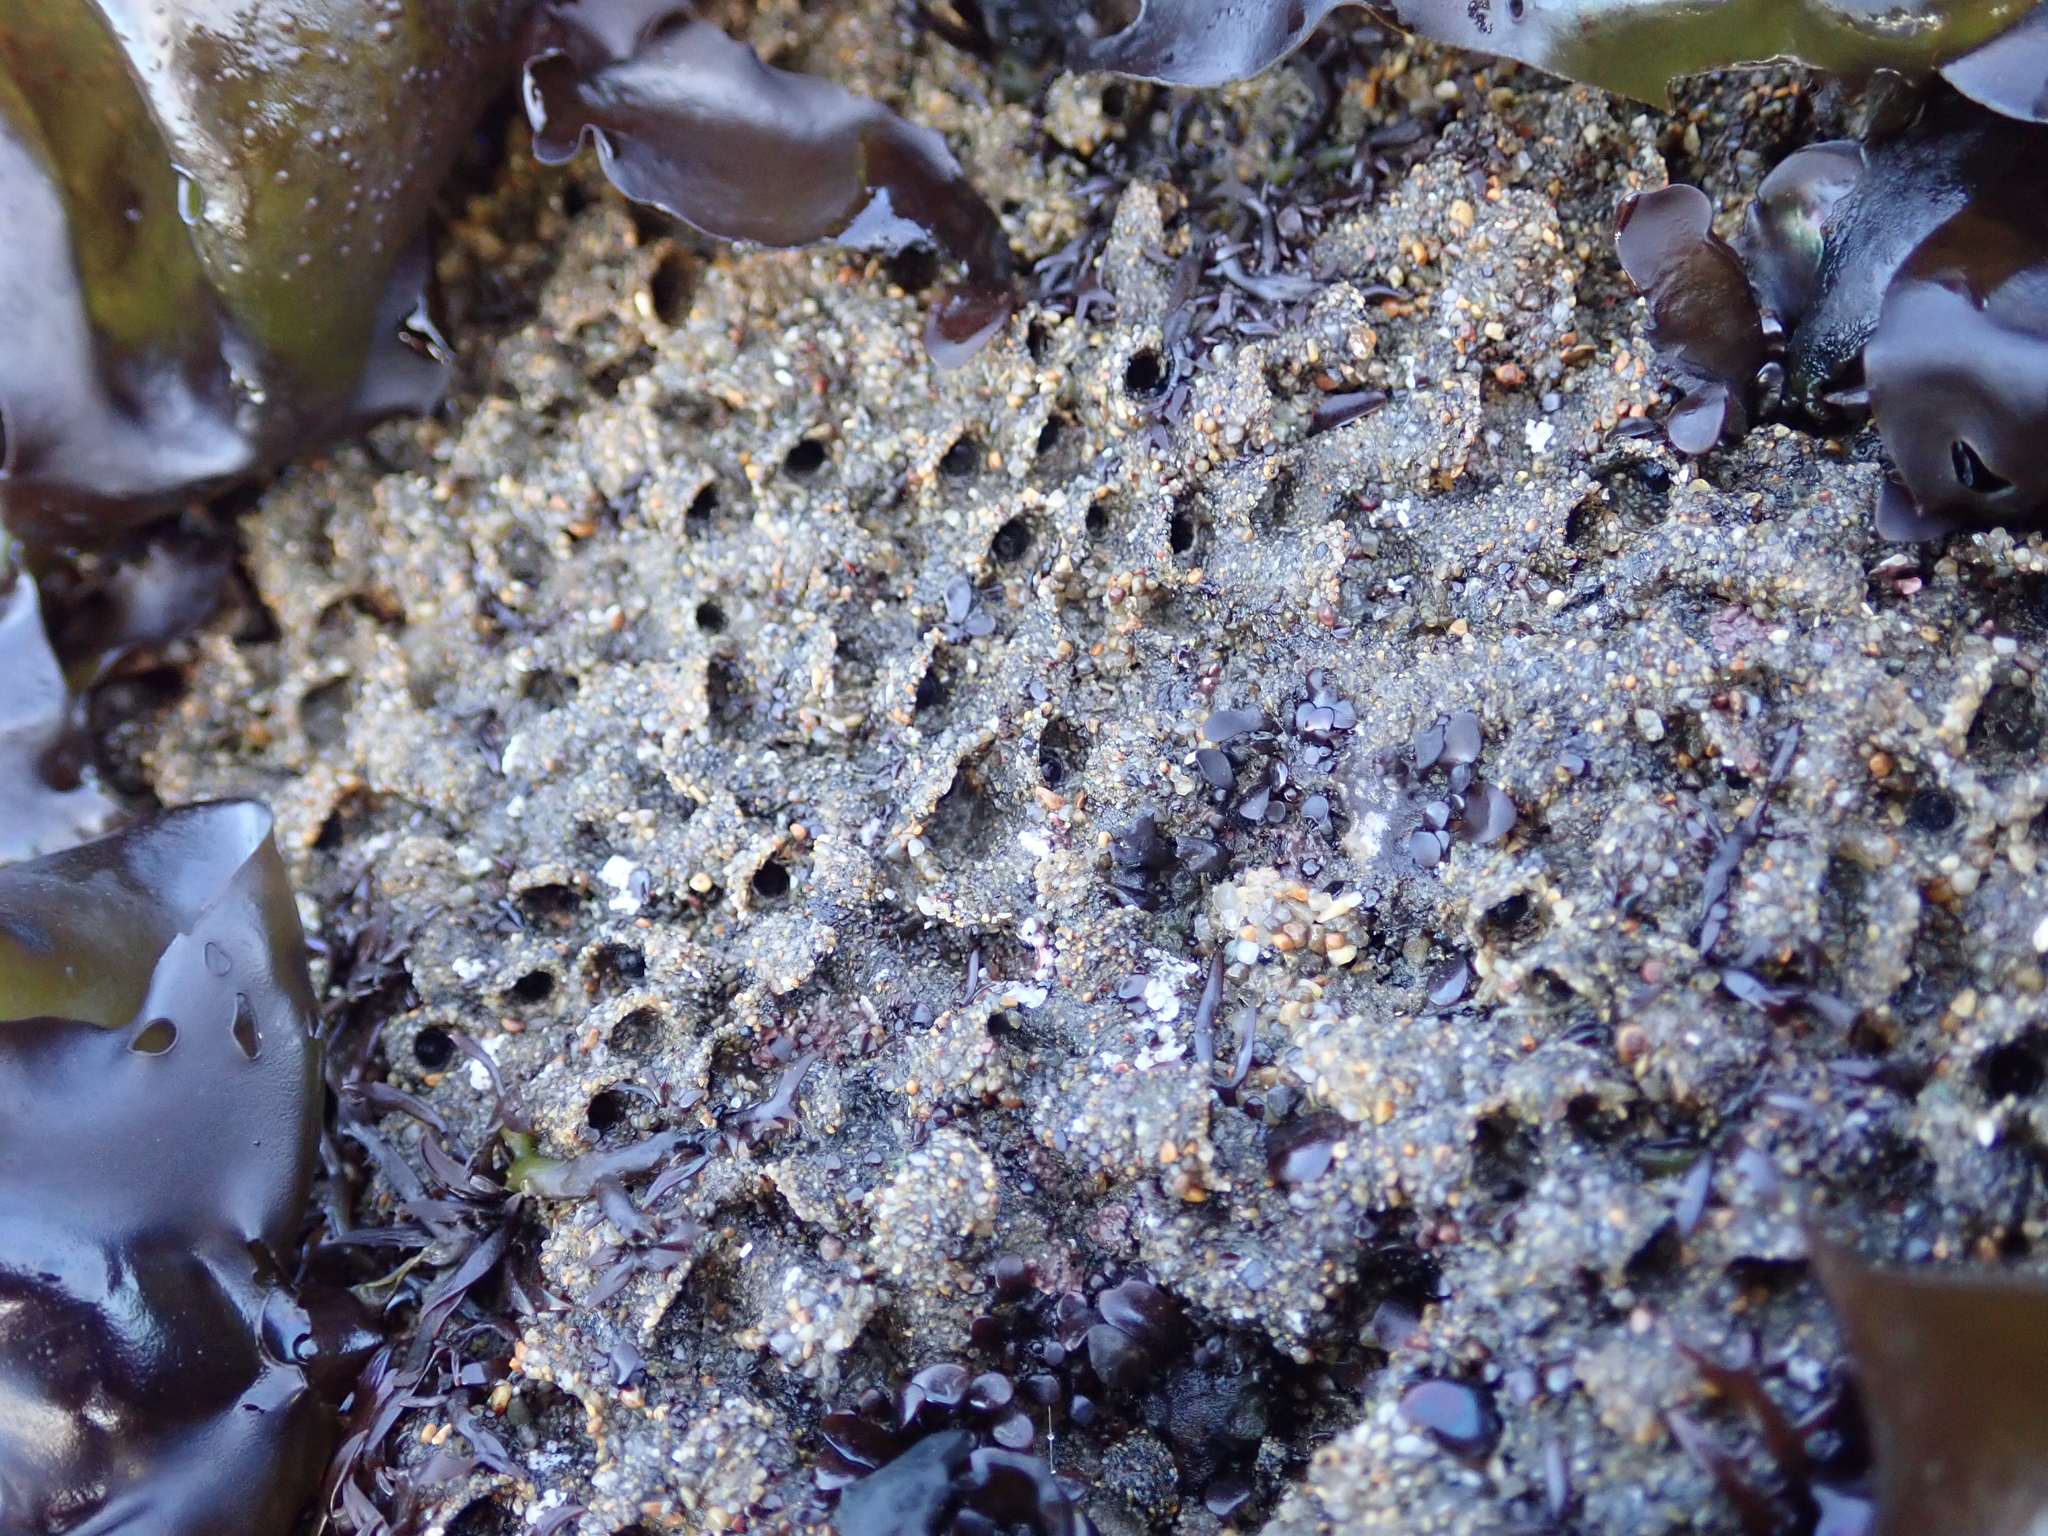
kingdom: Animalia
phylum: Annelida
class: Polychaeta
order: Sabellida
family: Sabellariidae
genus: Phragmatopoma
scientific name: Phragmatopoma californica
